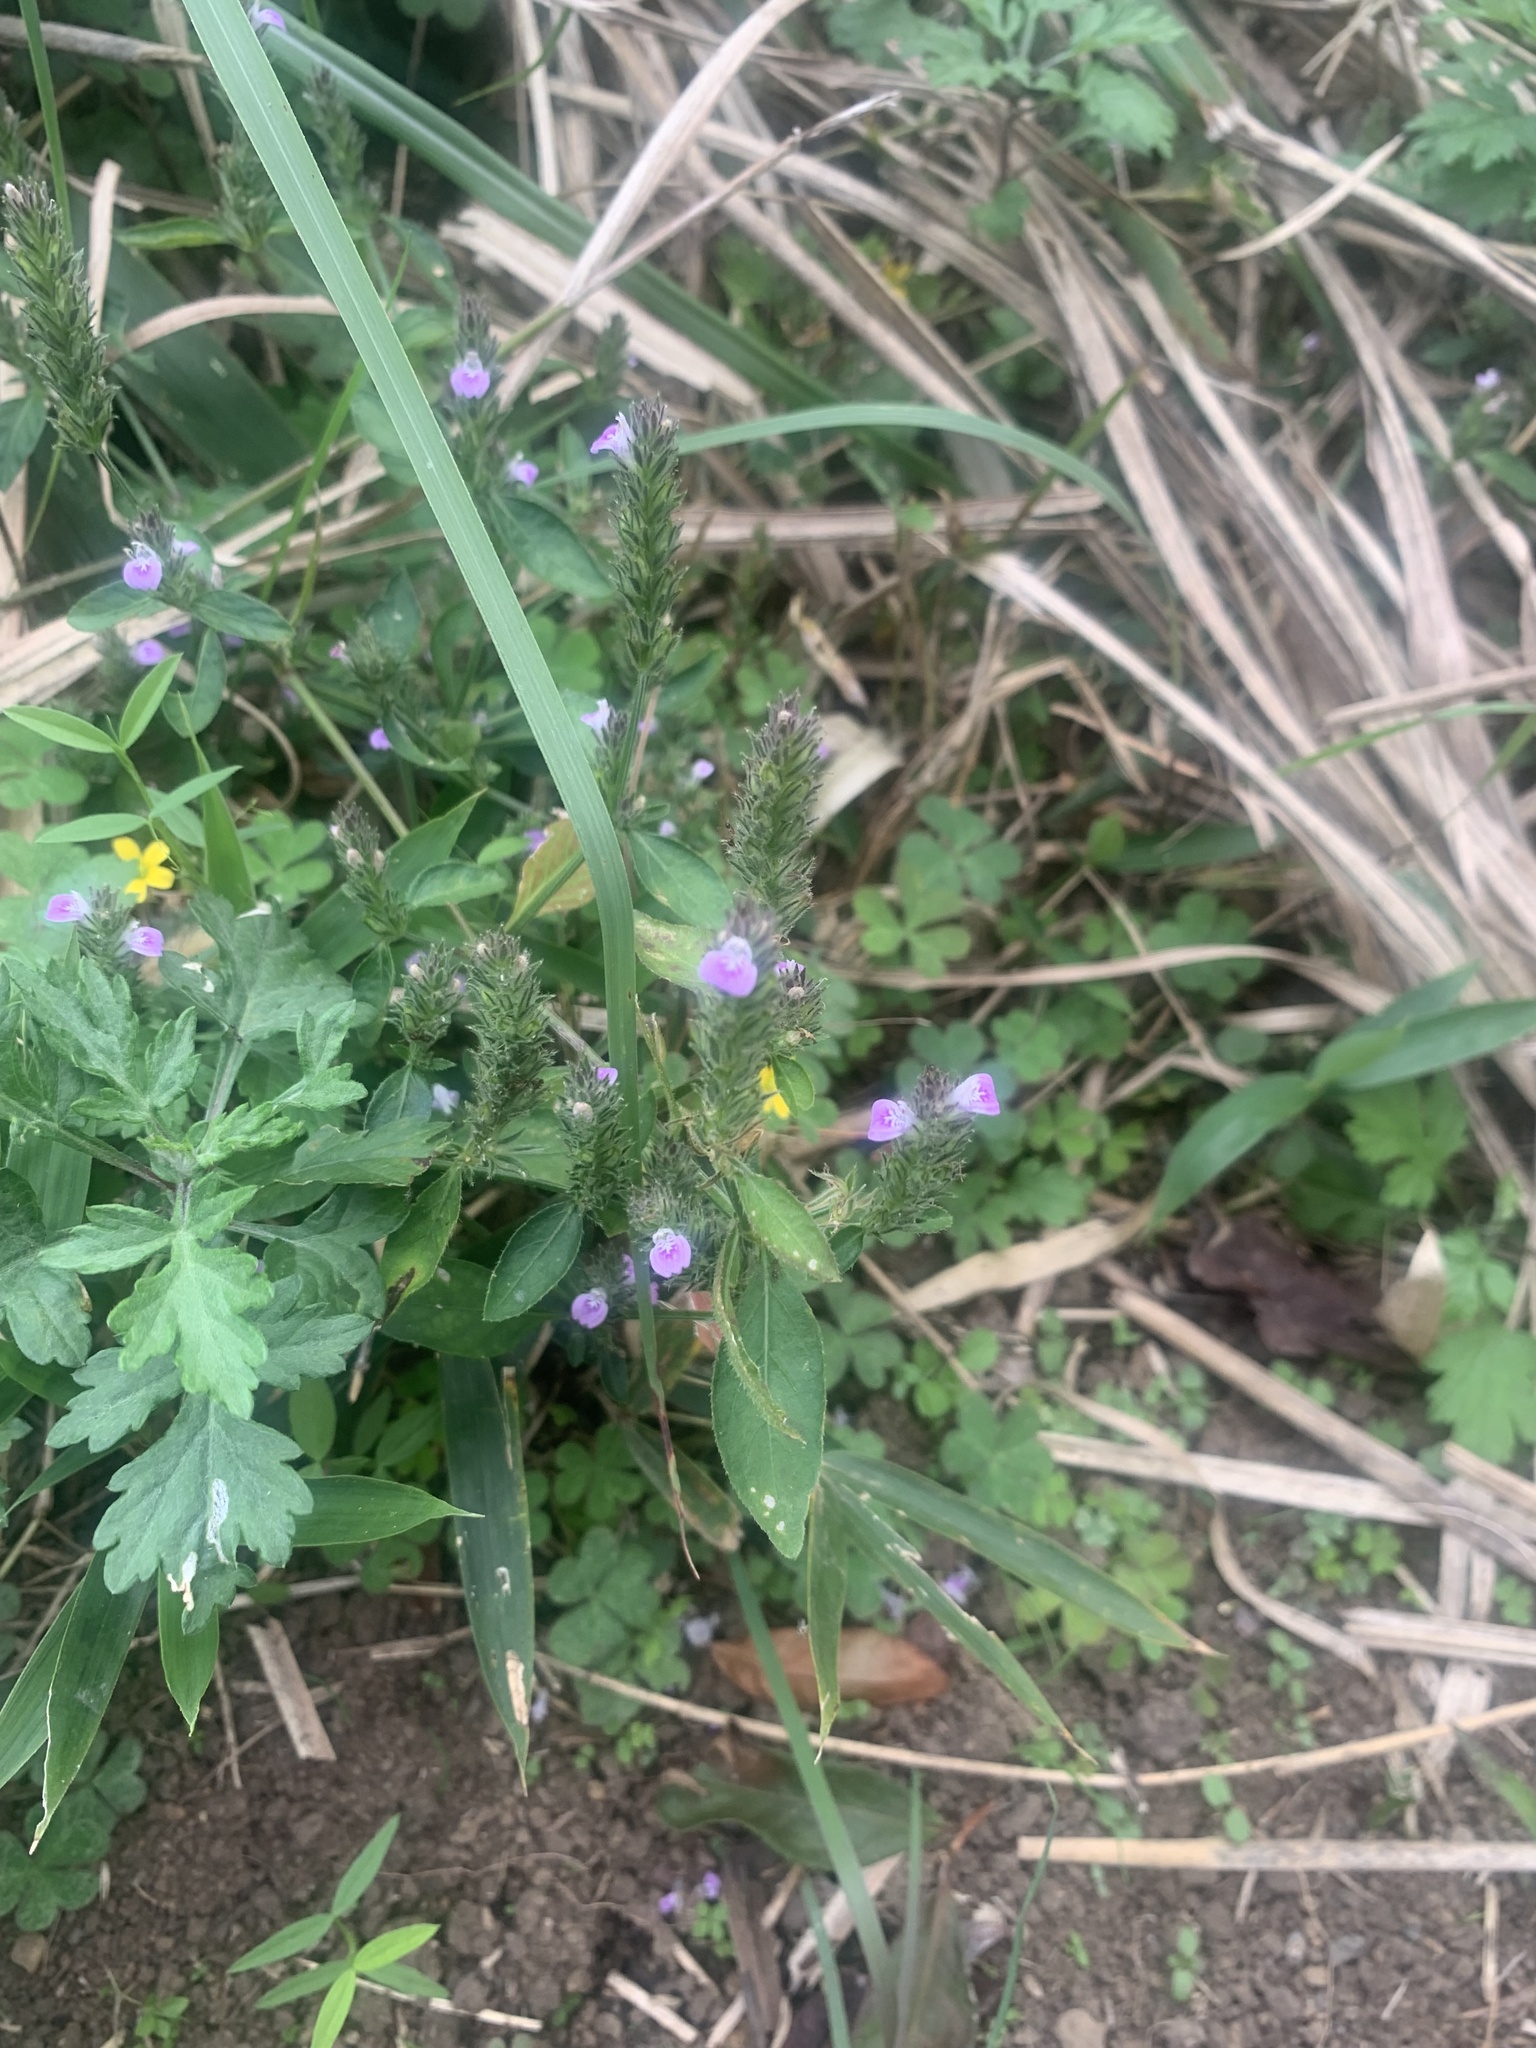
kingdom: Plantae
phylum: Tracheophyta
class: Magnoliopsida
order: Lamiales
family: Acanthaceae
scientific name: Acanthaceae
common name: Acanthaceae
